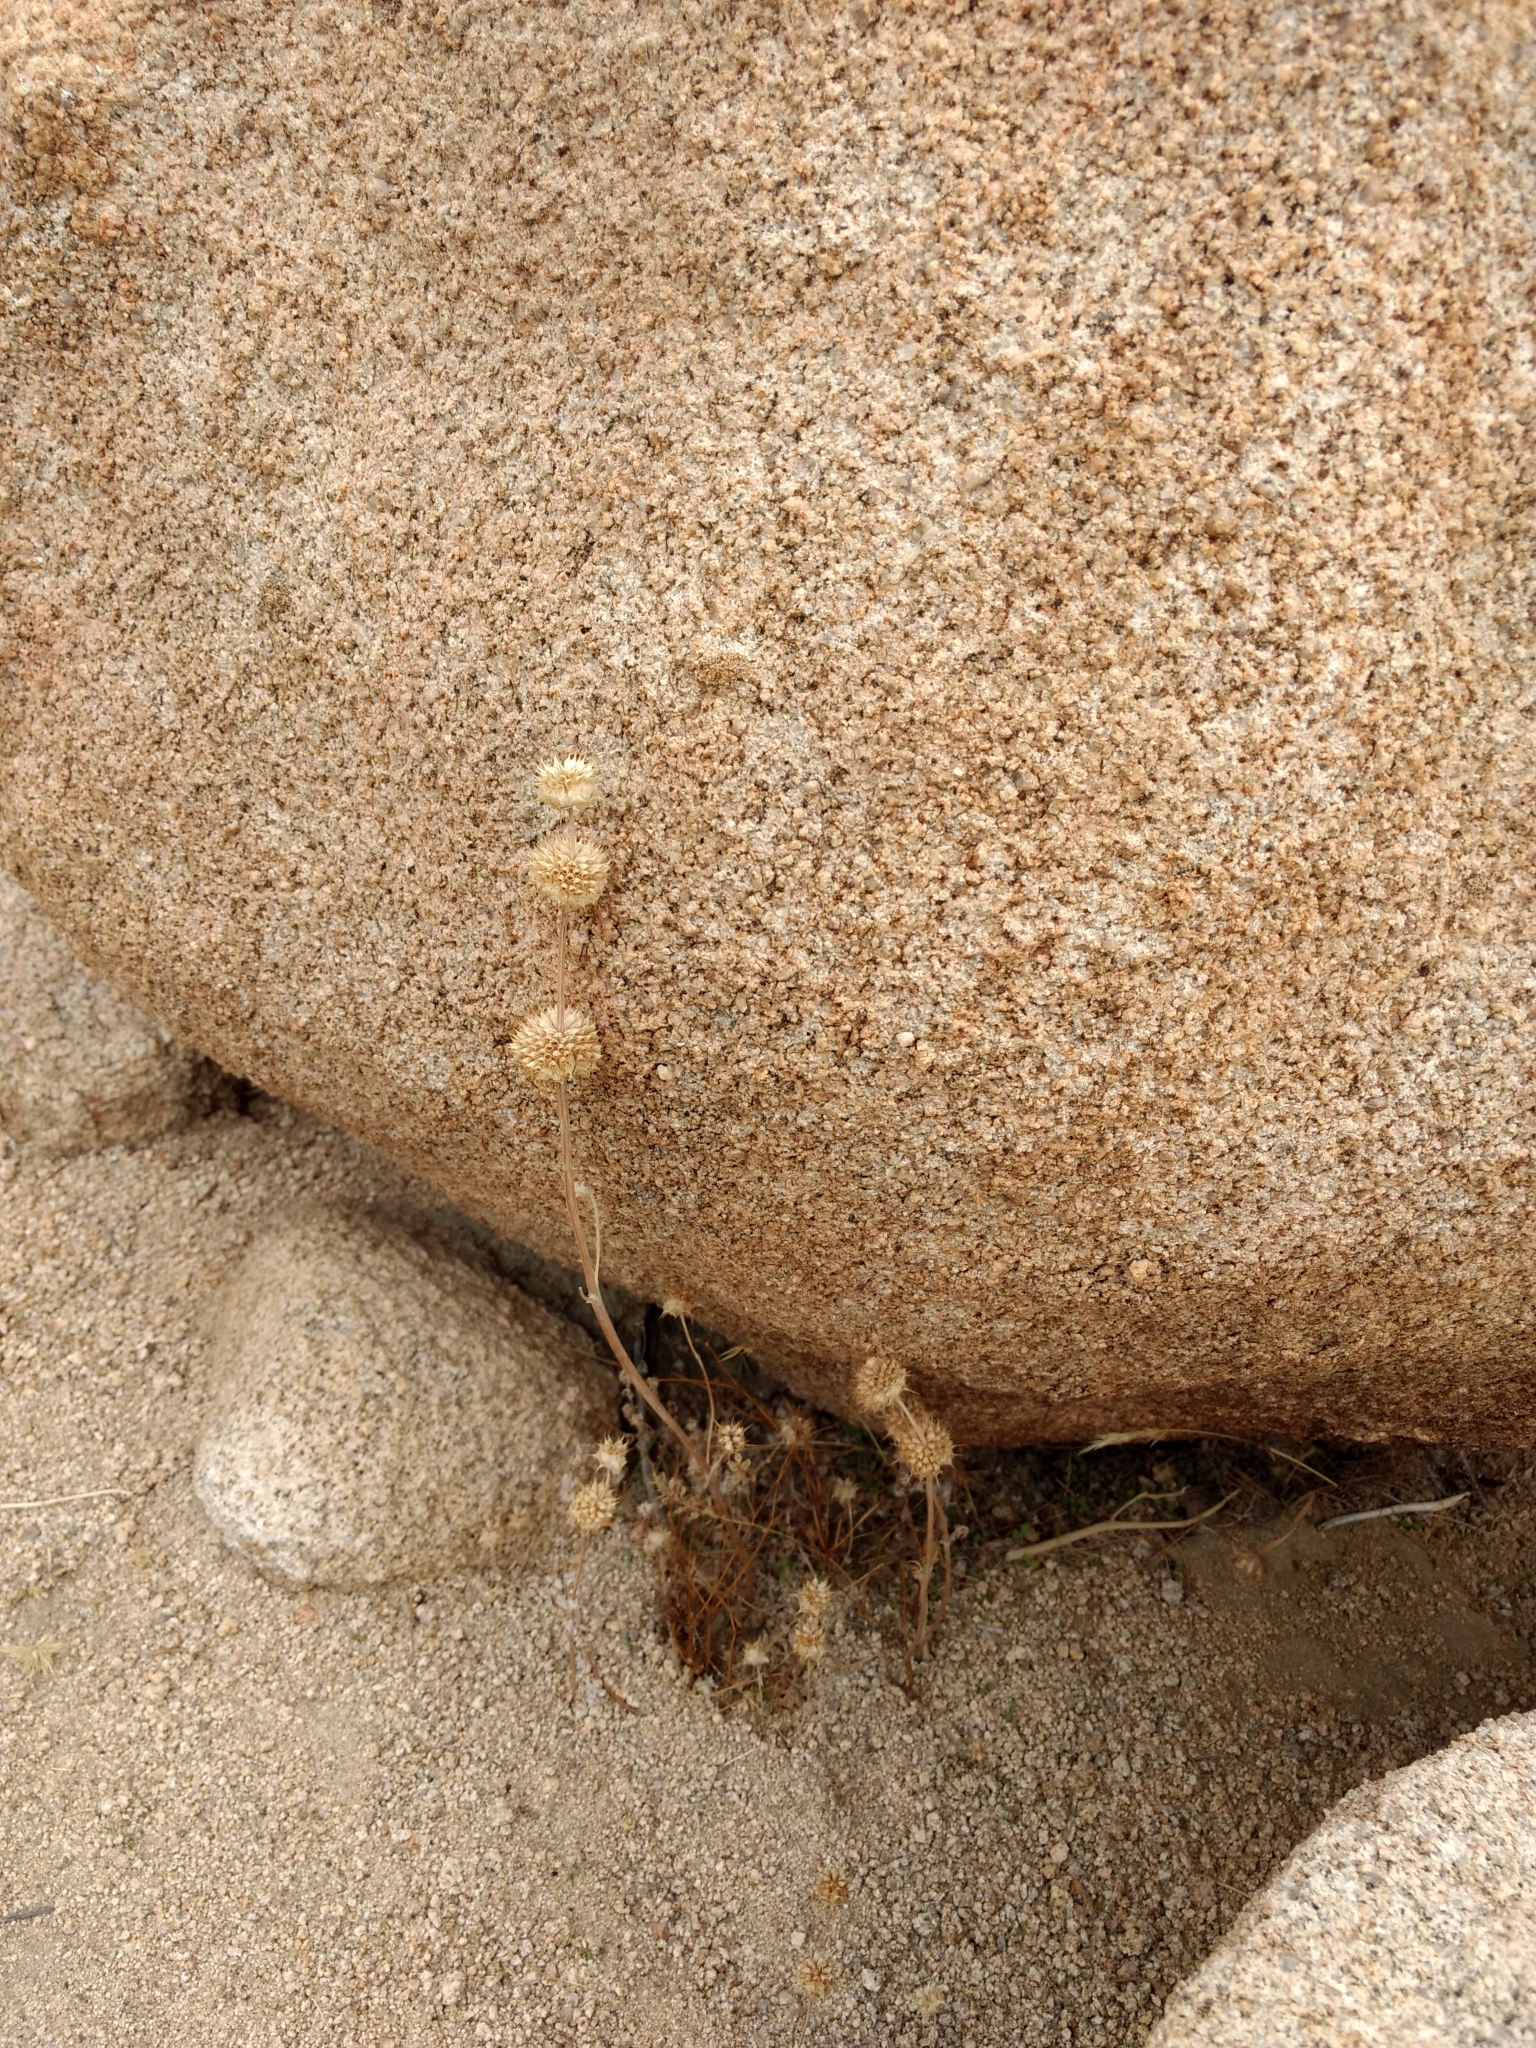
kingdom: Plantae
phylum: Tracheophyta
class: Magnoliopsida
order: Lamiales
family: Lamiaceae
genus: Salvia
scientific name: Salvia columbariae
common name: Chia
